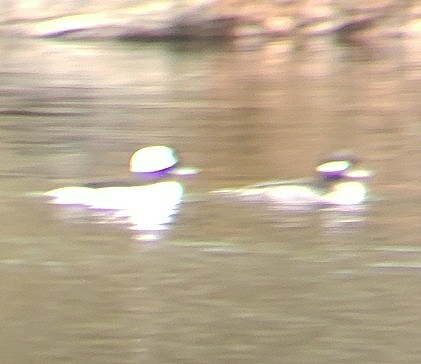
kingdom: Animalia
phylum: Chordata
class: Aves
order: Anseriformes
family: Anatidae
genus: Bucephala
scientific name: Bucephala albeola
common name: Bufflehead
